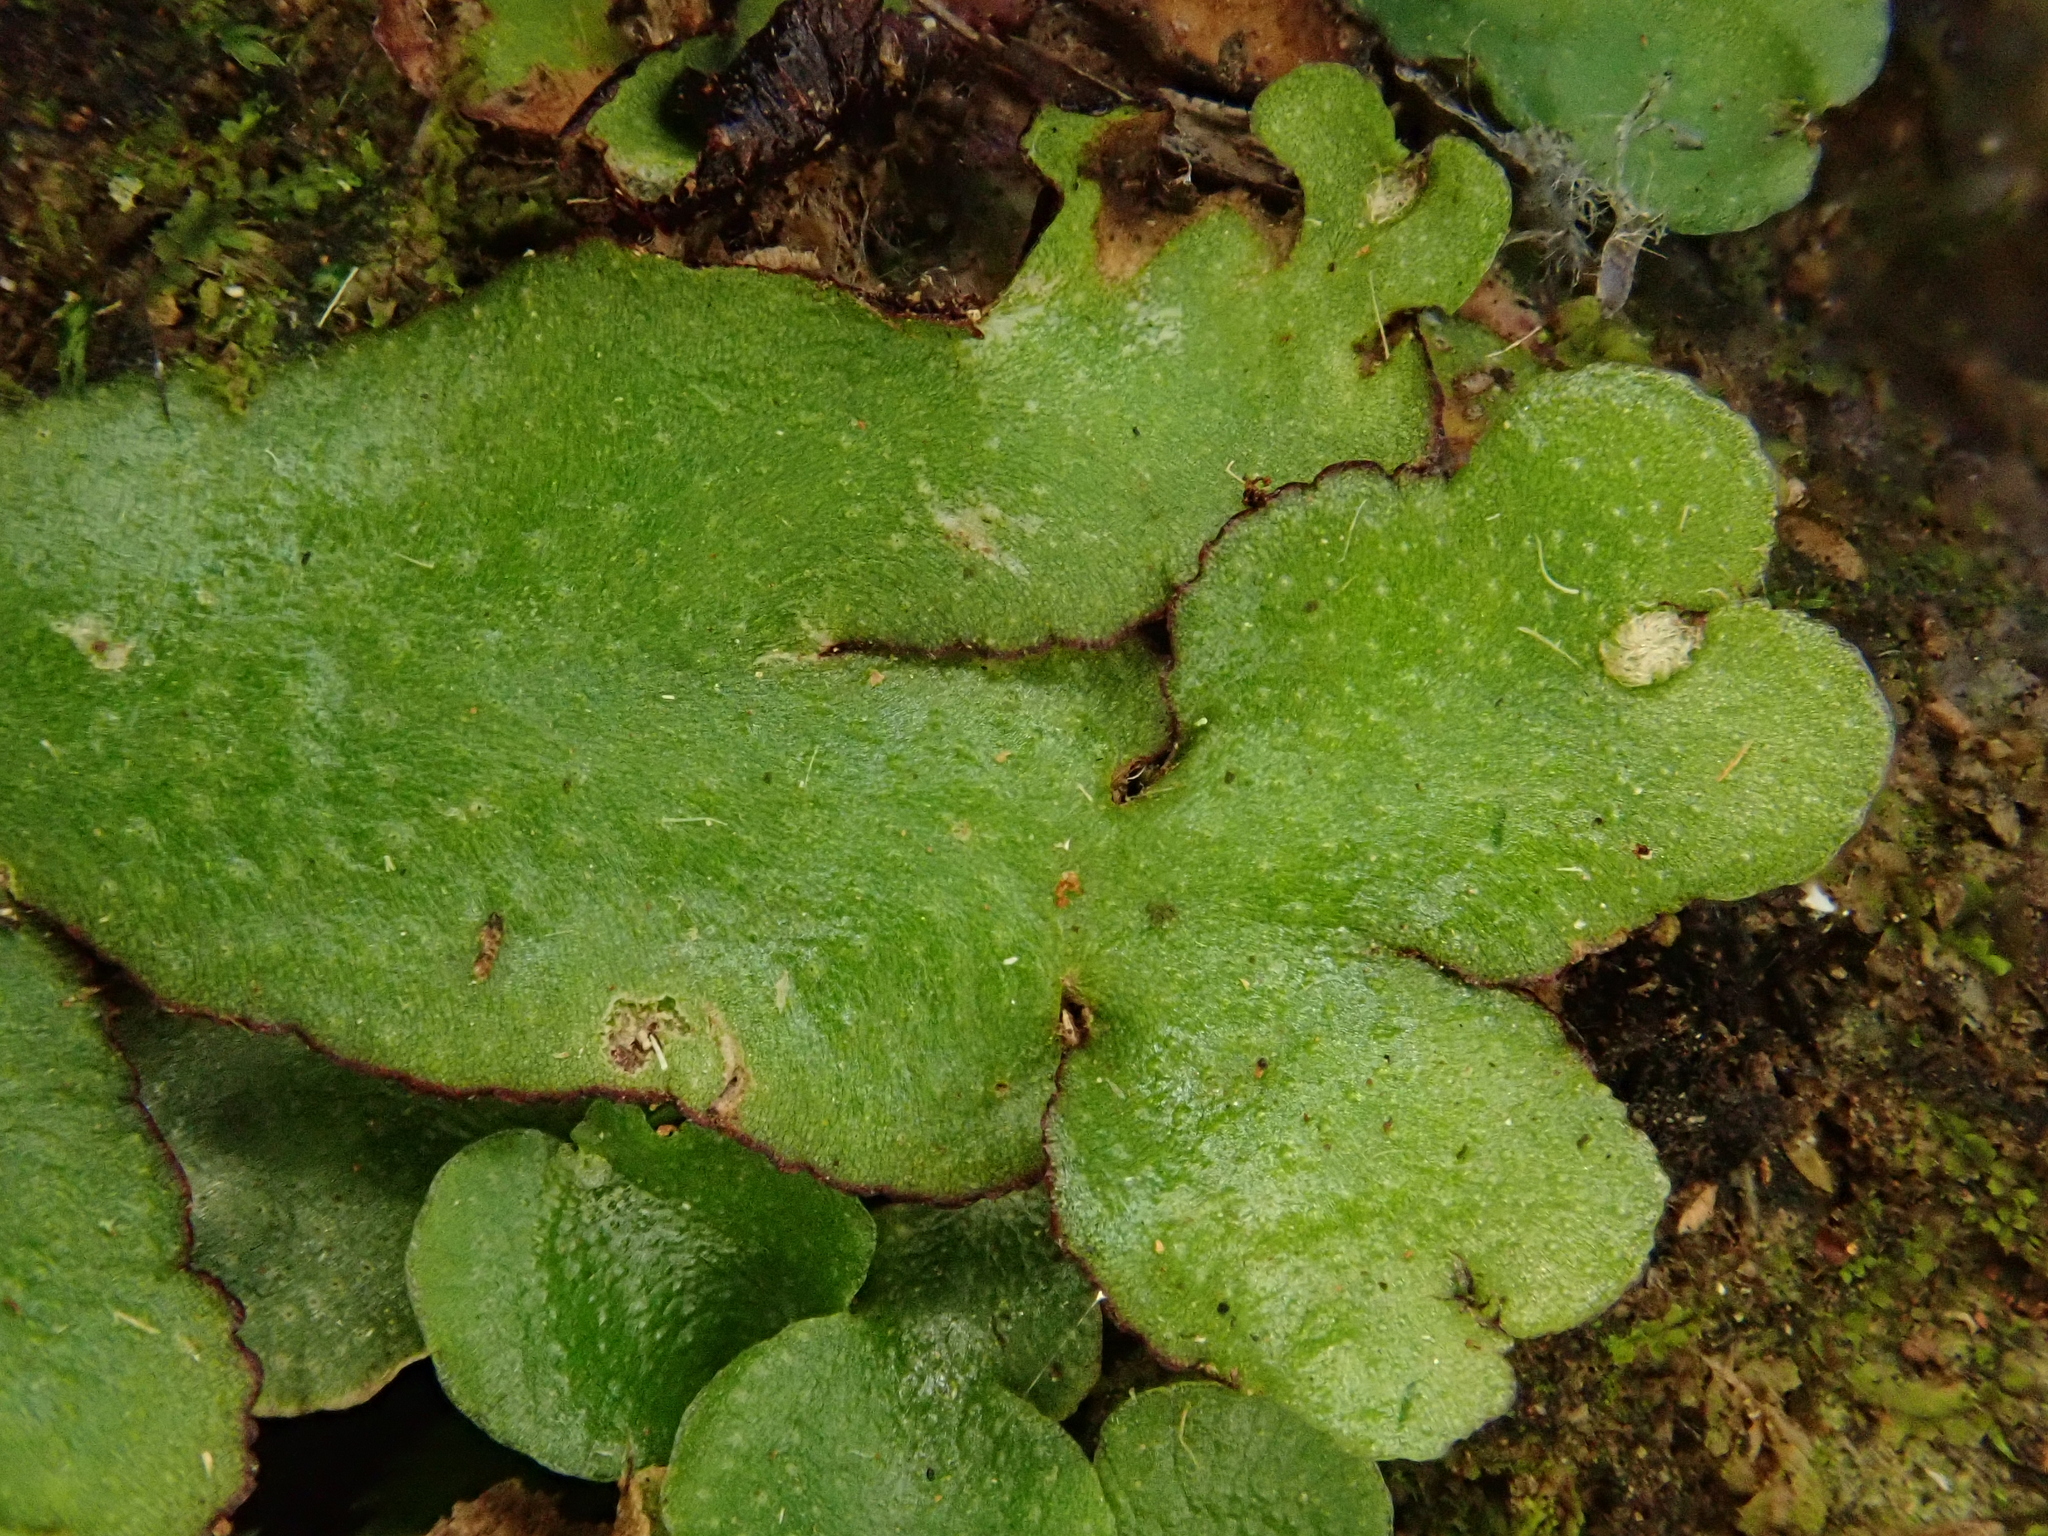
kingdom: Plantae
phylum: Marchantiophyta
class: Marchantiopsida
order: Marchantiales
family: Aytoniaceae
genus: Reboulia
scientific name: Reboulia hemisphaerica
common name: Purple-margined liverwort
